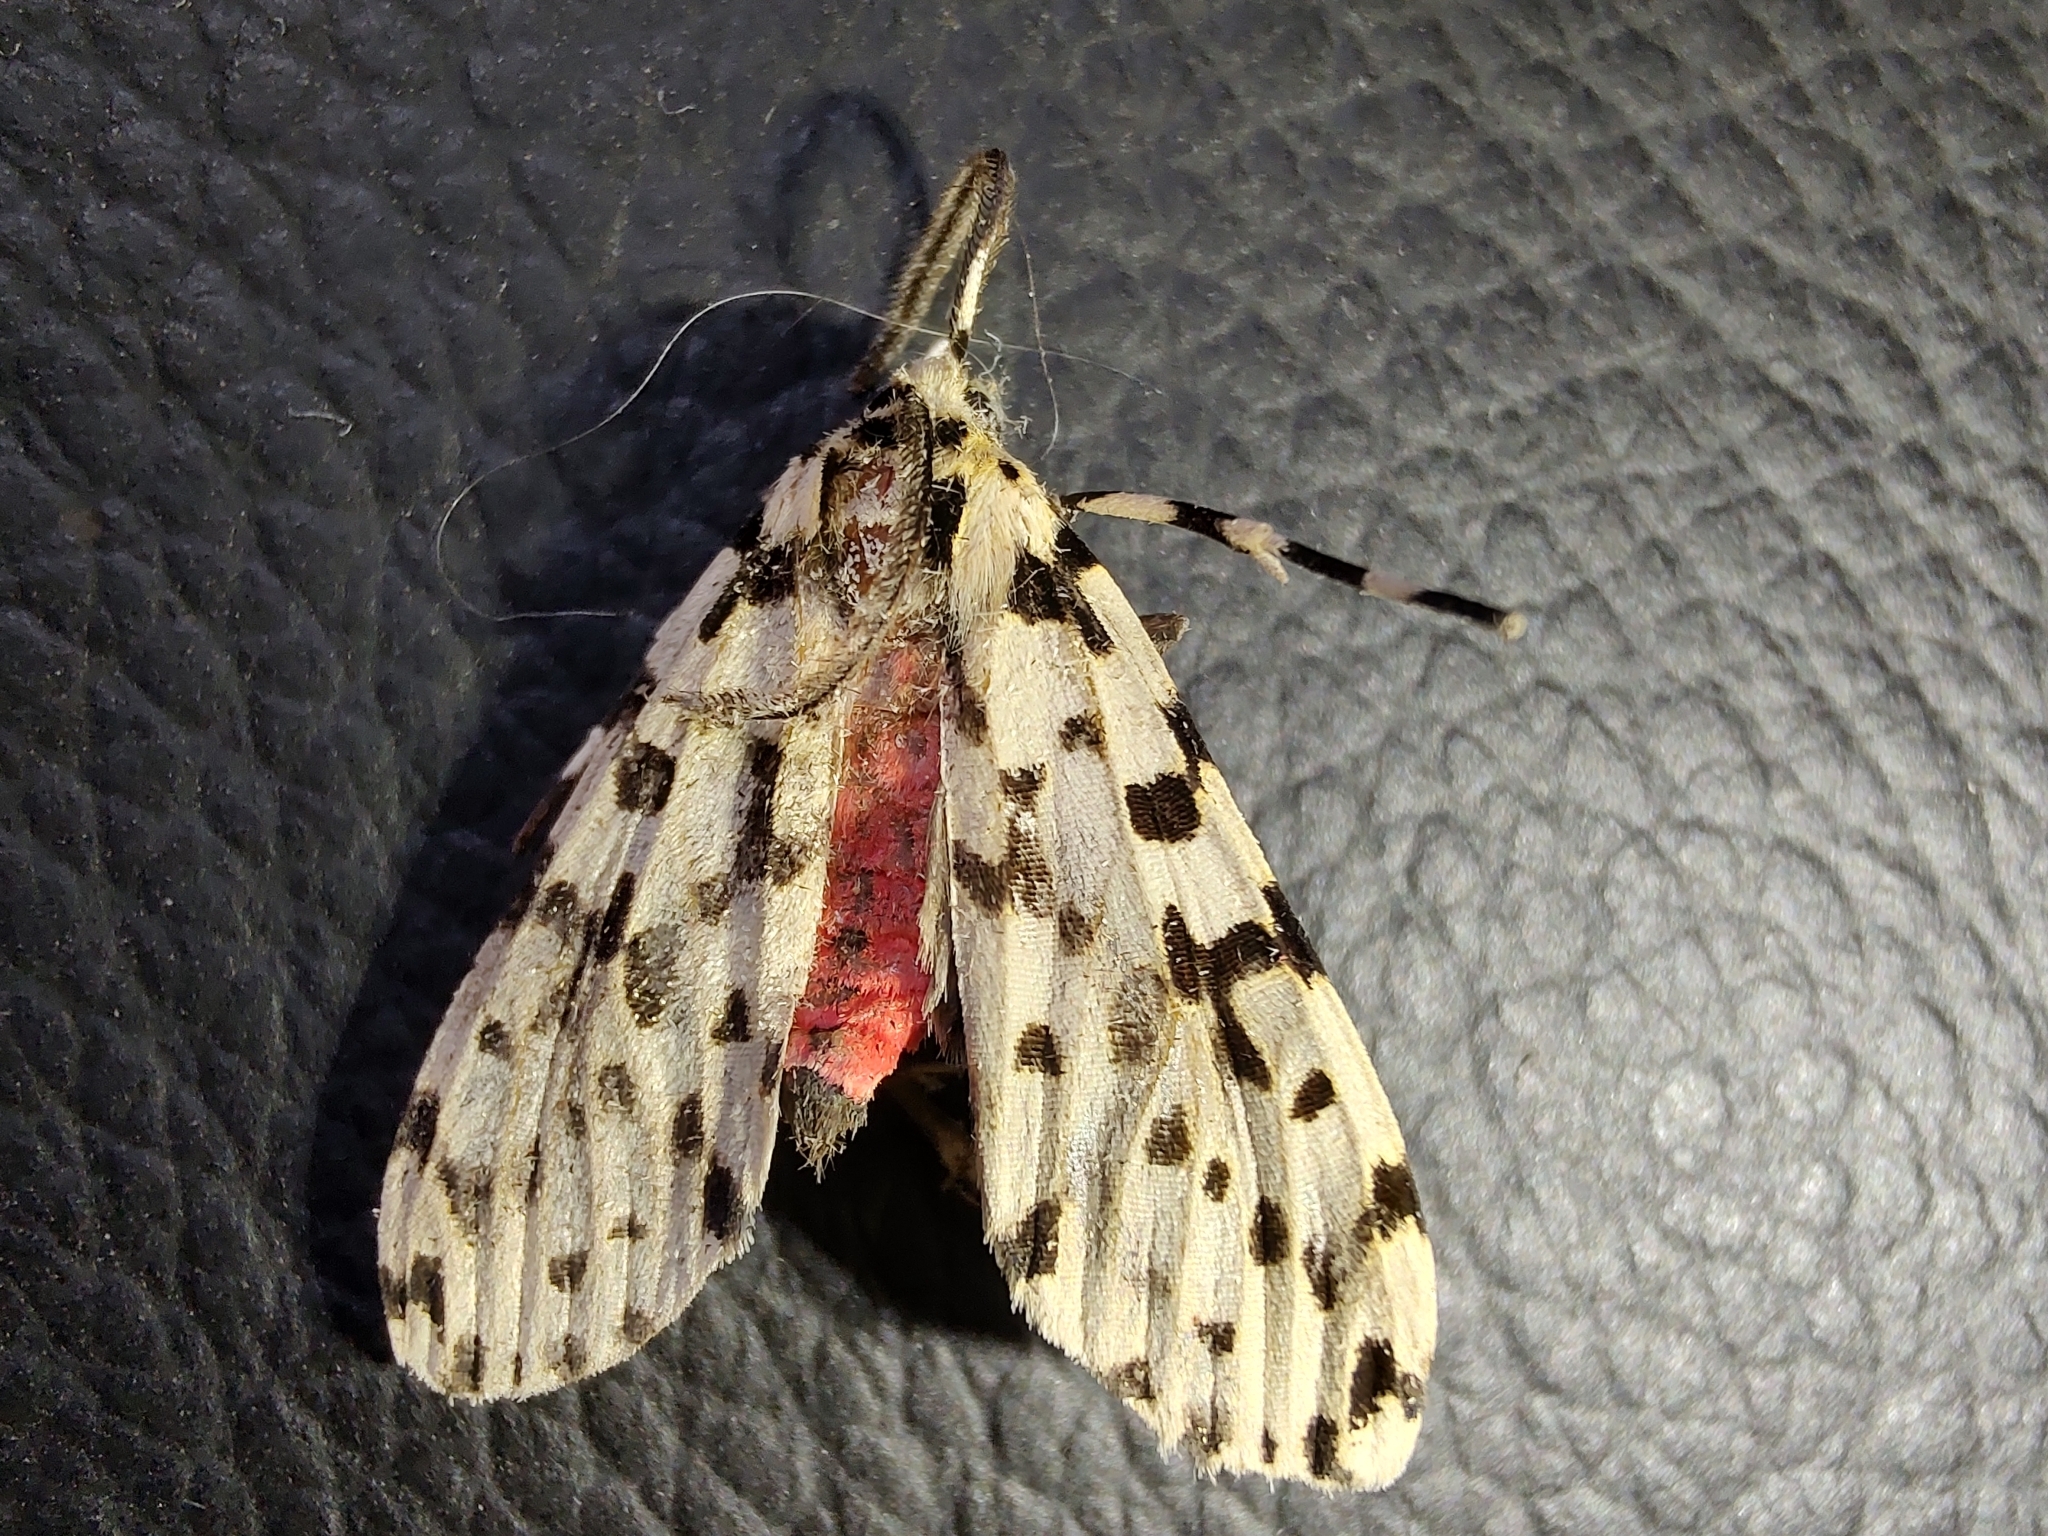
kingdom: Animalia
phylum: Arthropoda
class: Insecta
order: Lepidoptera
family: Erebidae
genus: Eucereon
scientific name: Eucereon punctata
